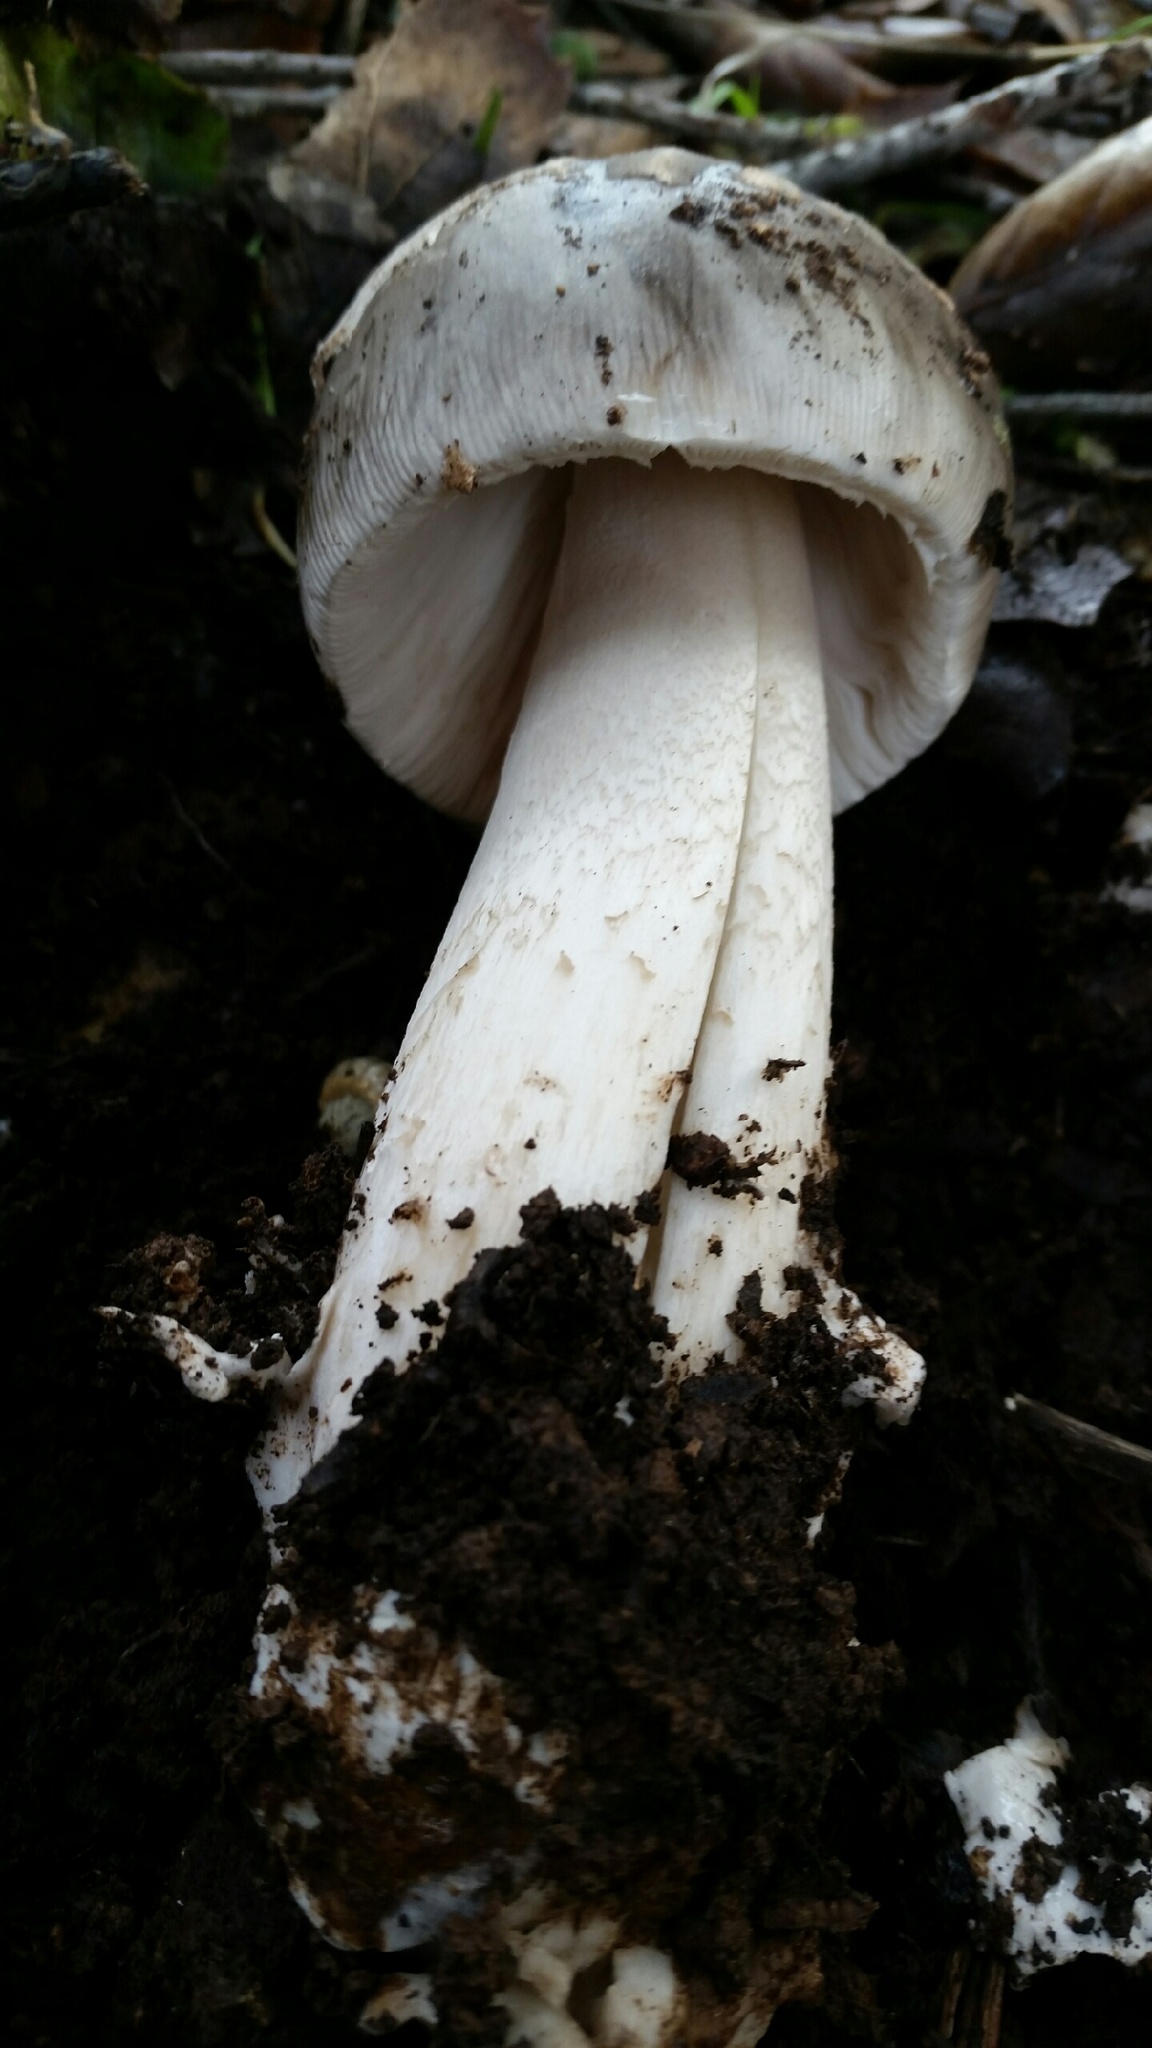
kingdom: Fungi
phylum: Basidiomycota
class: Agaricomycetes
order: Agaricales
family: Amanitaceae
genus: Amanita
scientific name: Amanita constricta
